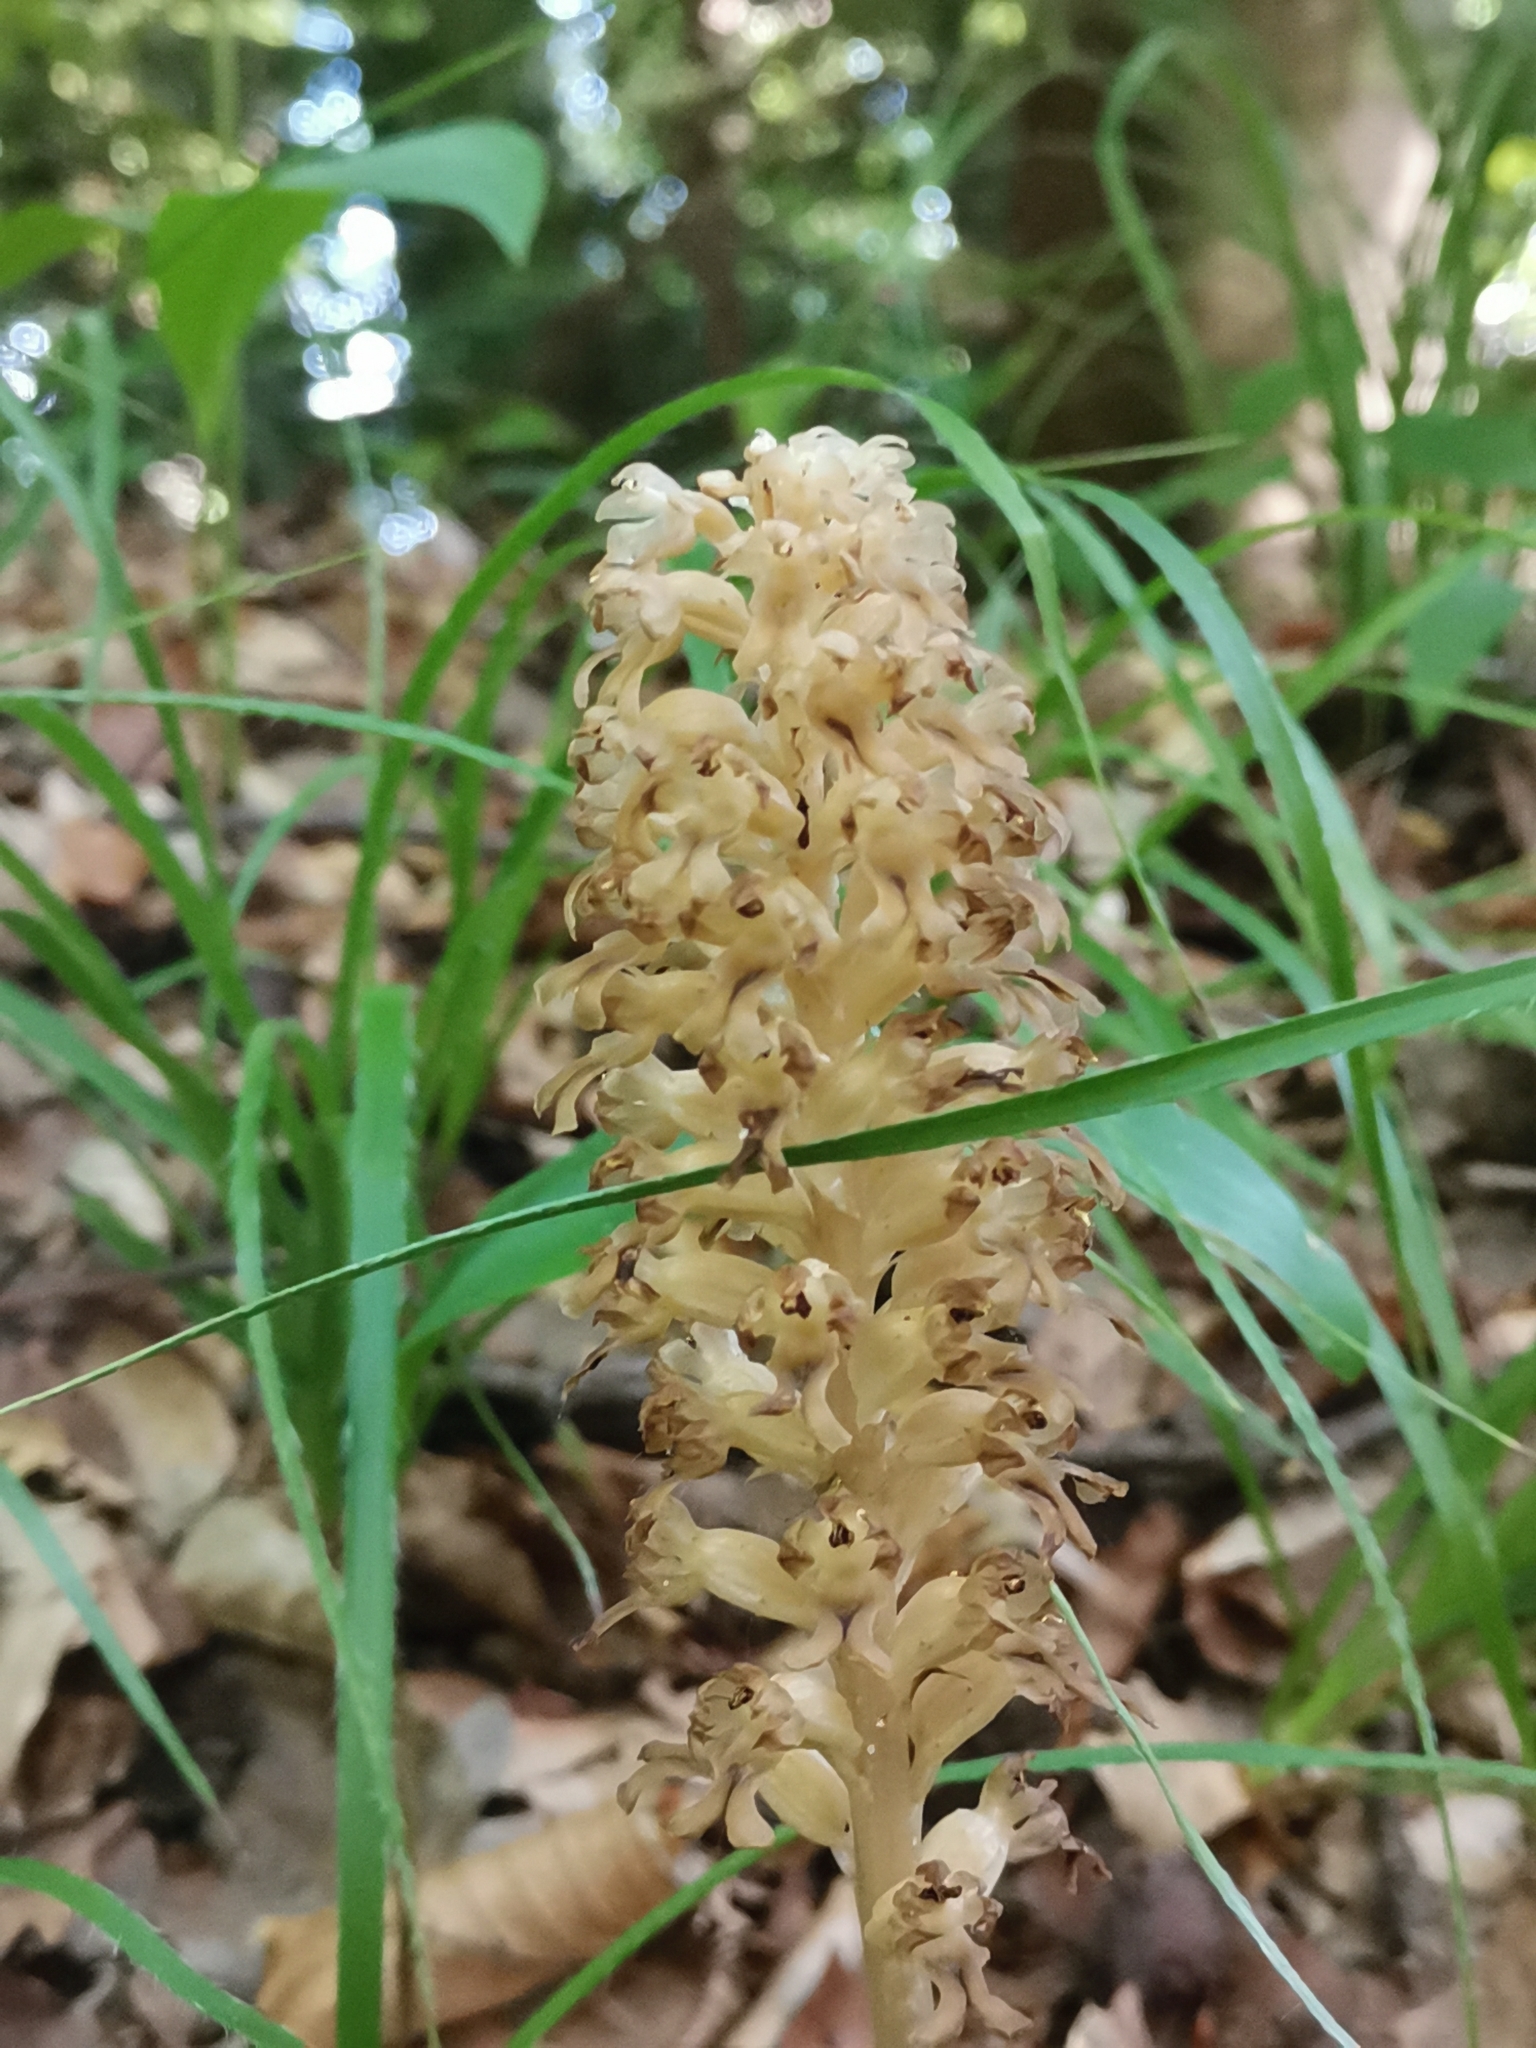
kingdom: Plantae
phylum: Tracheophyta
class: Liliopsida
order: Asparagales
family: Orchidaceae
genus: Neottia
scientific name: Neottia nidus-avis
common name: Bird's-nest orchid
